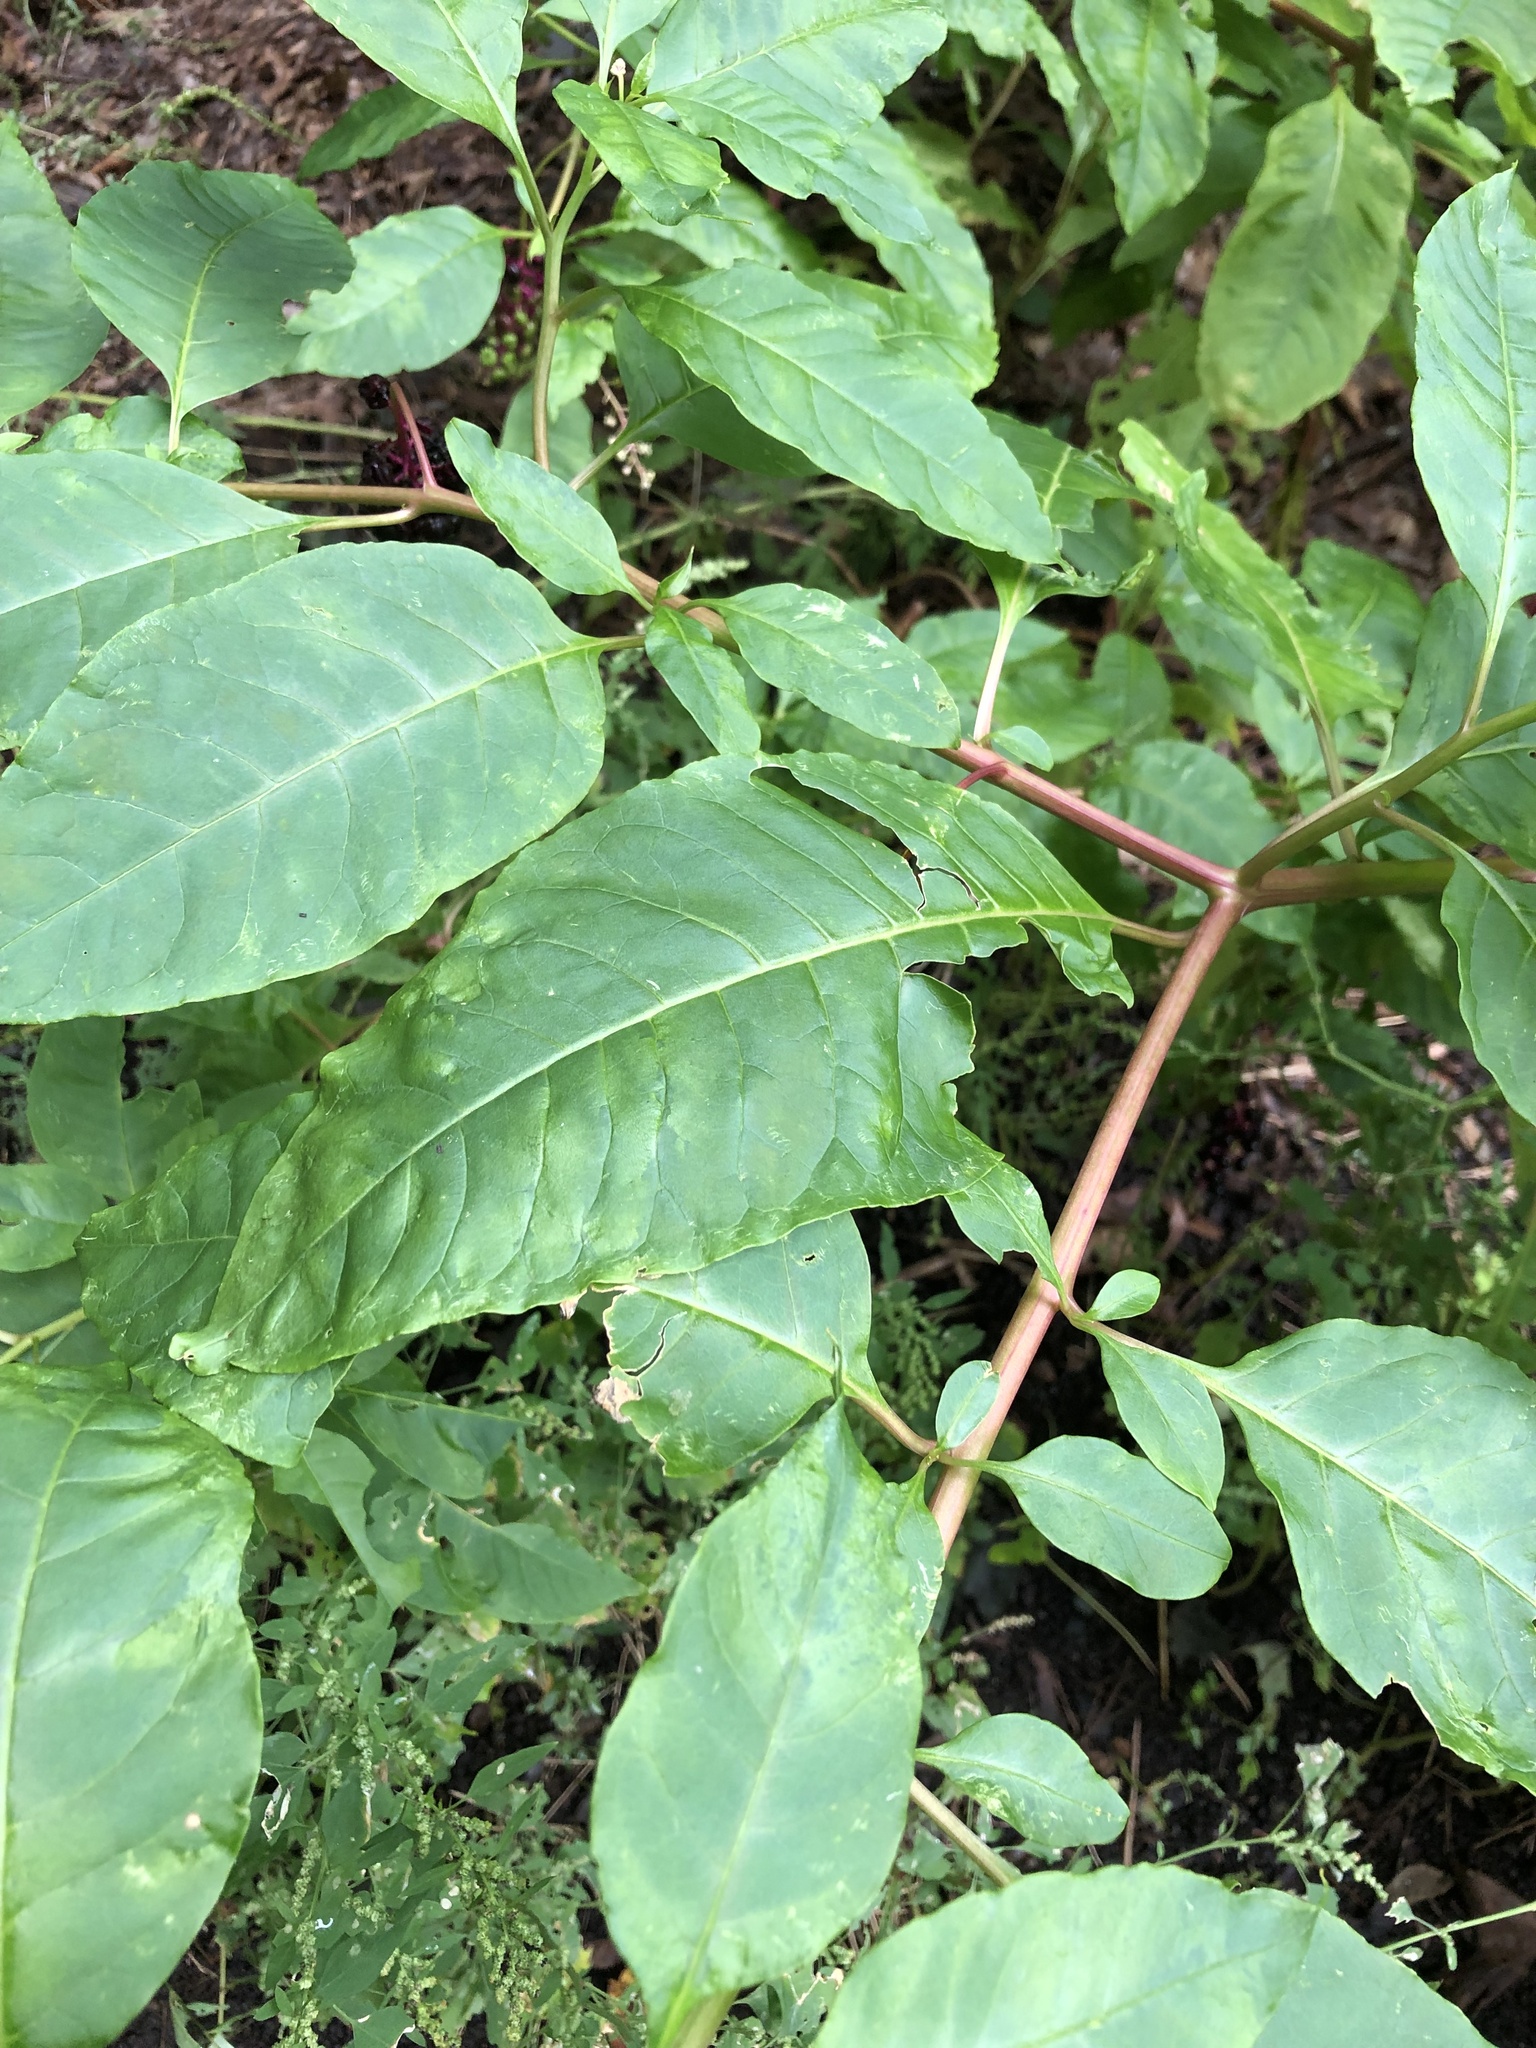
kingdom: Viruses
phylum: Pisuviricota
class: Stelpaviricetes
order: Patatavirales
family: Potyviridae
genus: Potyvirus
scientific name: Potyvirus Pokeweed mosaic virus
